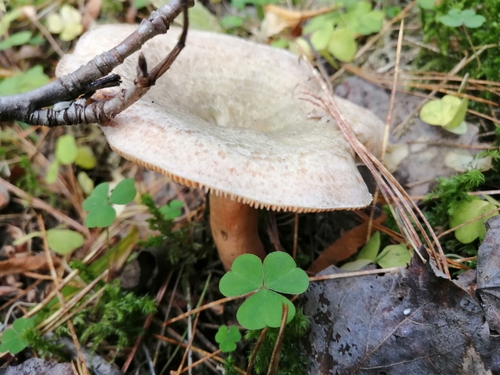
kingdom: Fungi
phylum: Basidiomycota
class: Agaricomycetes
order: Russulales
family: Russulaceae
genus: Lactarius
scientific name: Lactarius deterrimus
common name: False saffron milkcap
